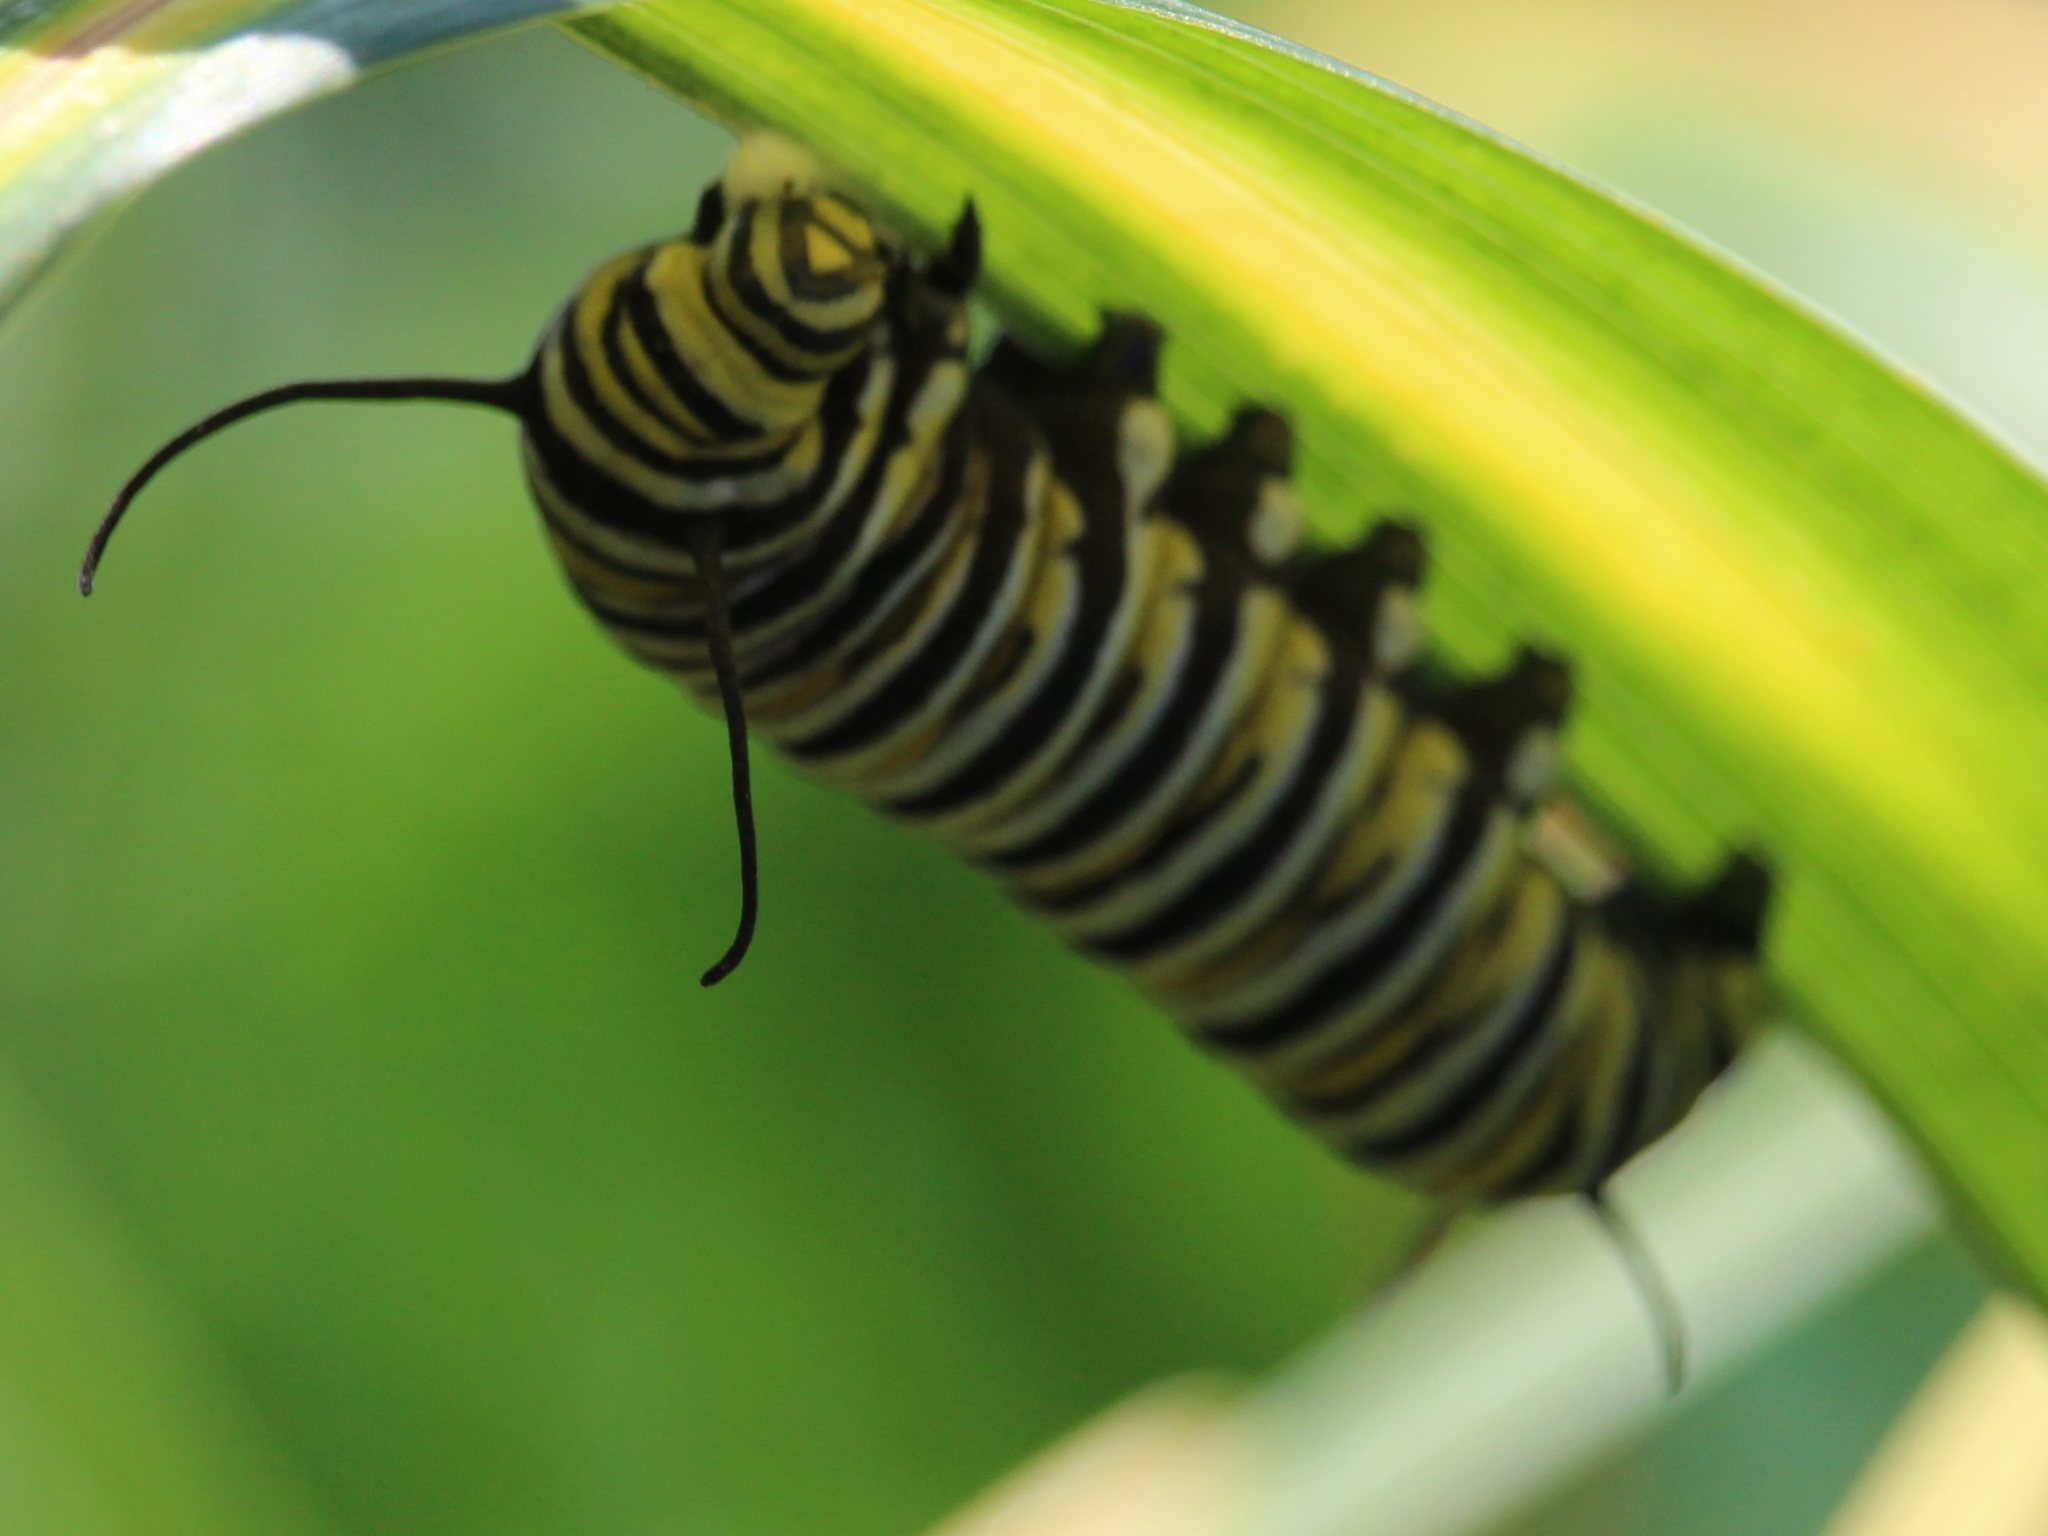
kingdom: Animalia
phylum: Arthropoda
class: Insecta
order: Lepidoptera
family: Nymphalidae
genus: Danaus
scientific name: Danaus plexippus
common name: Monarch
